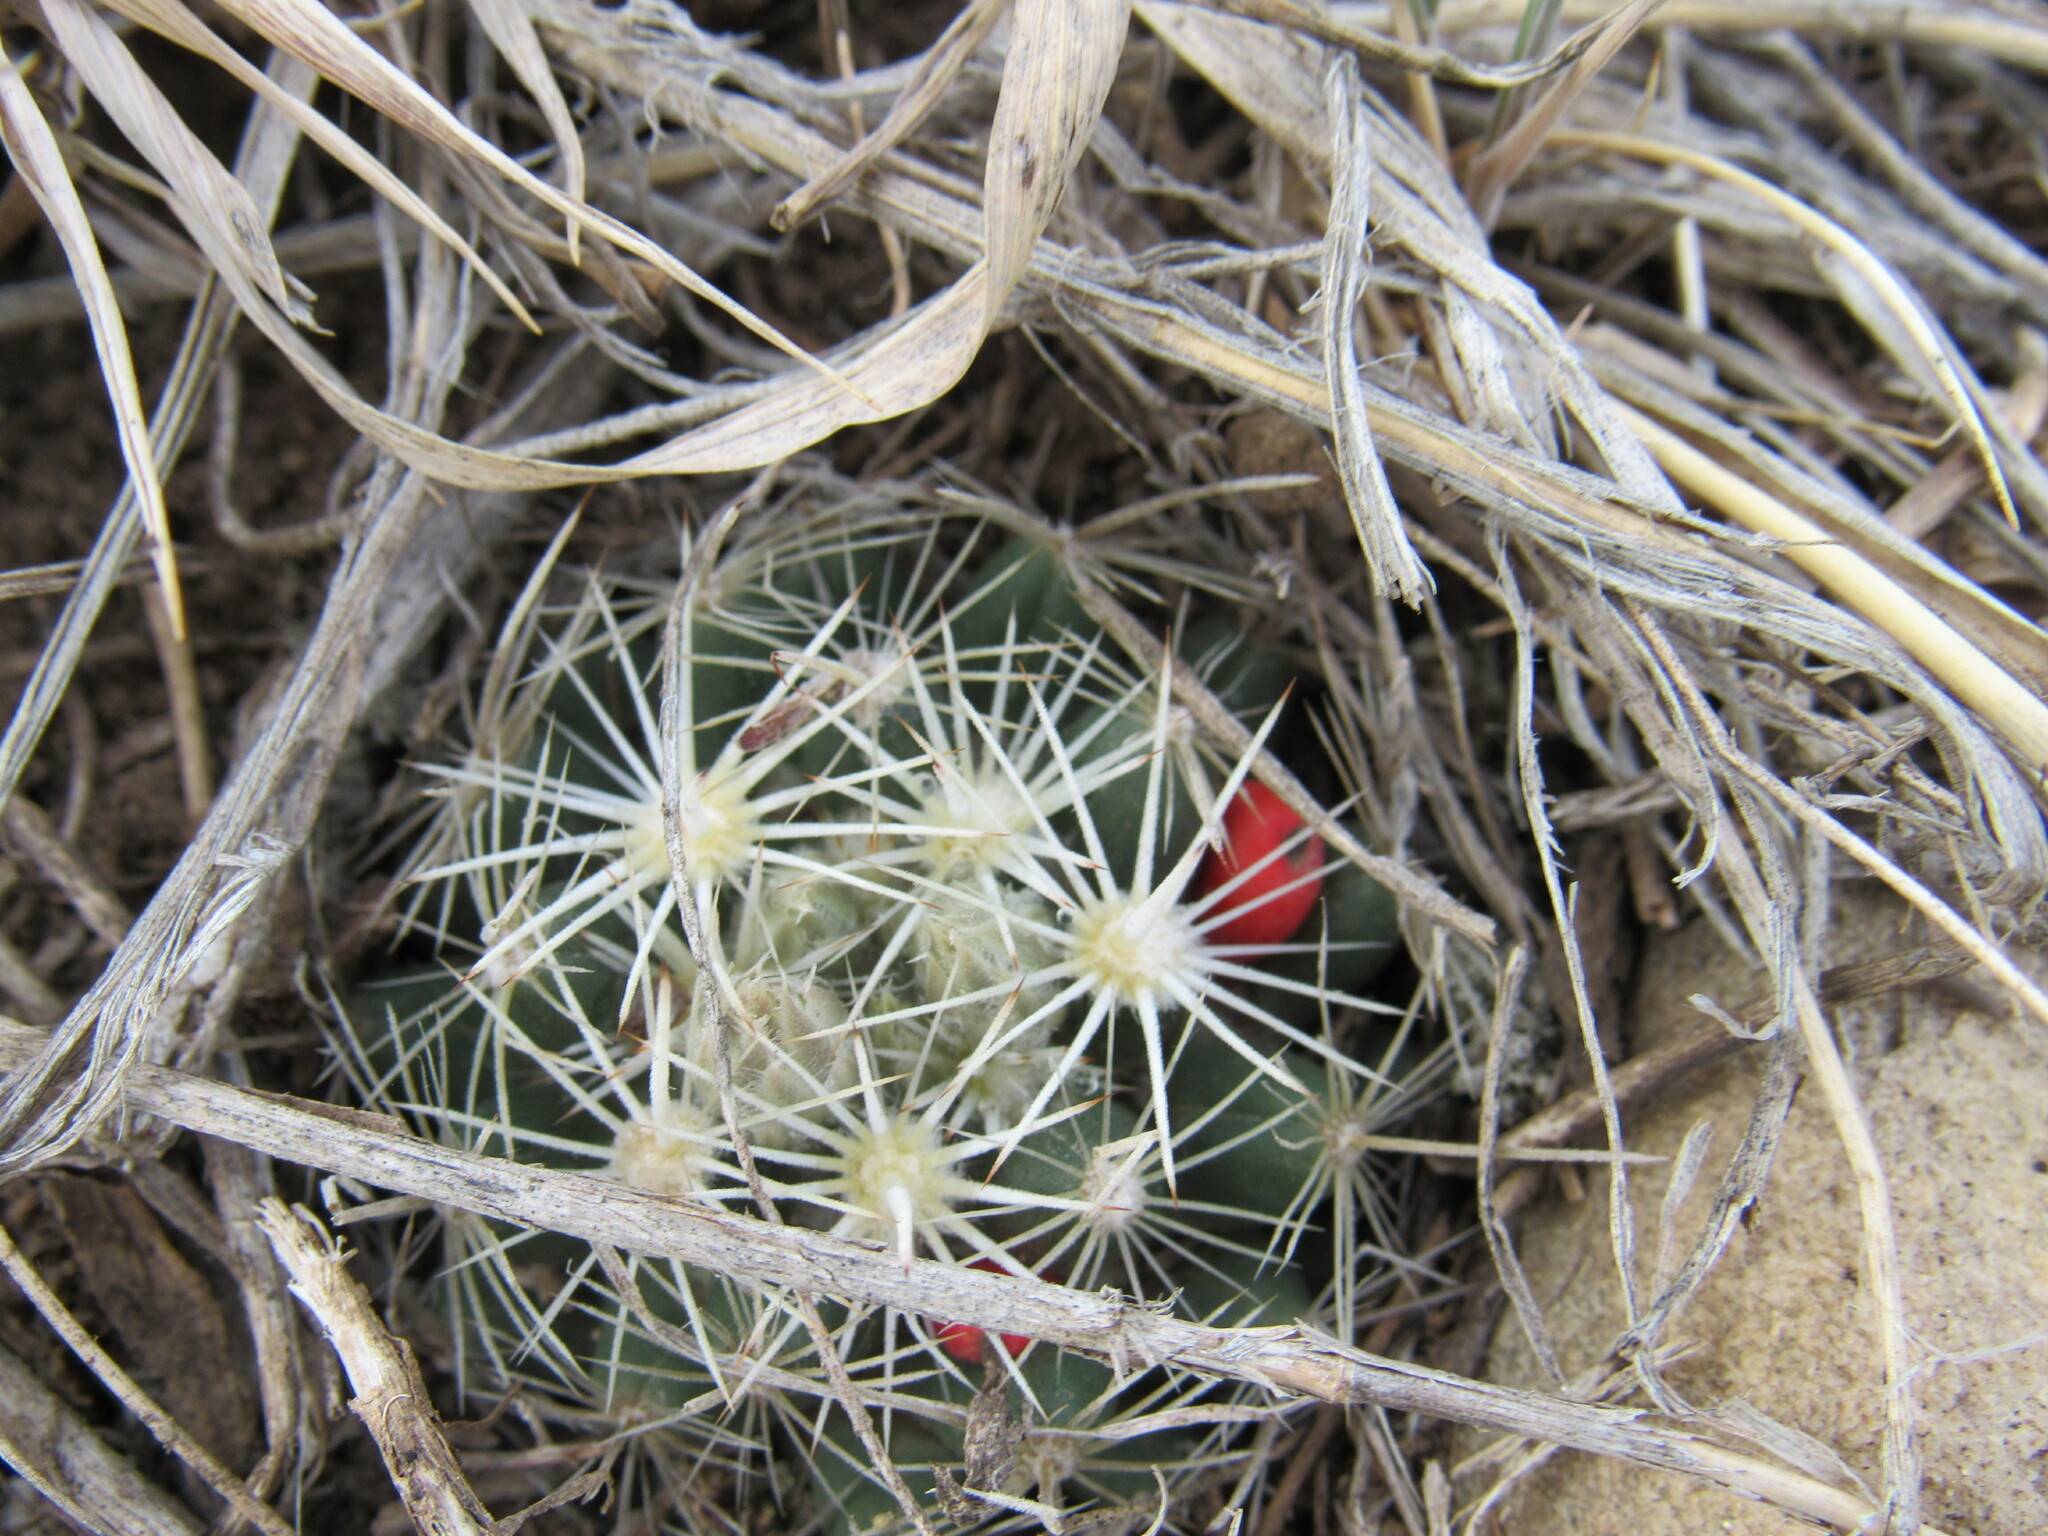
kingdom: Plantae
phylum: Tracheophyta
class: Magnoliopsida
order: Caryophyllales
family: Cactaceae
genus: Pelecyphora
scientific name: Pelecyphora missouriensis
